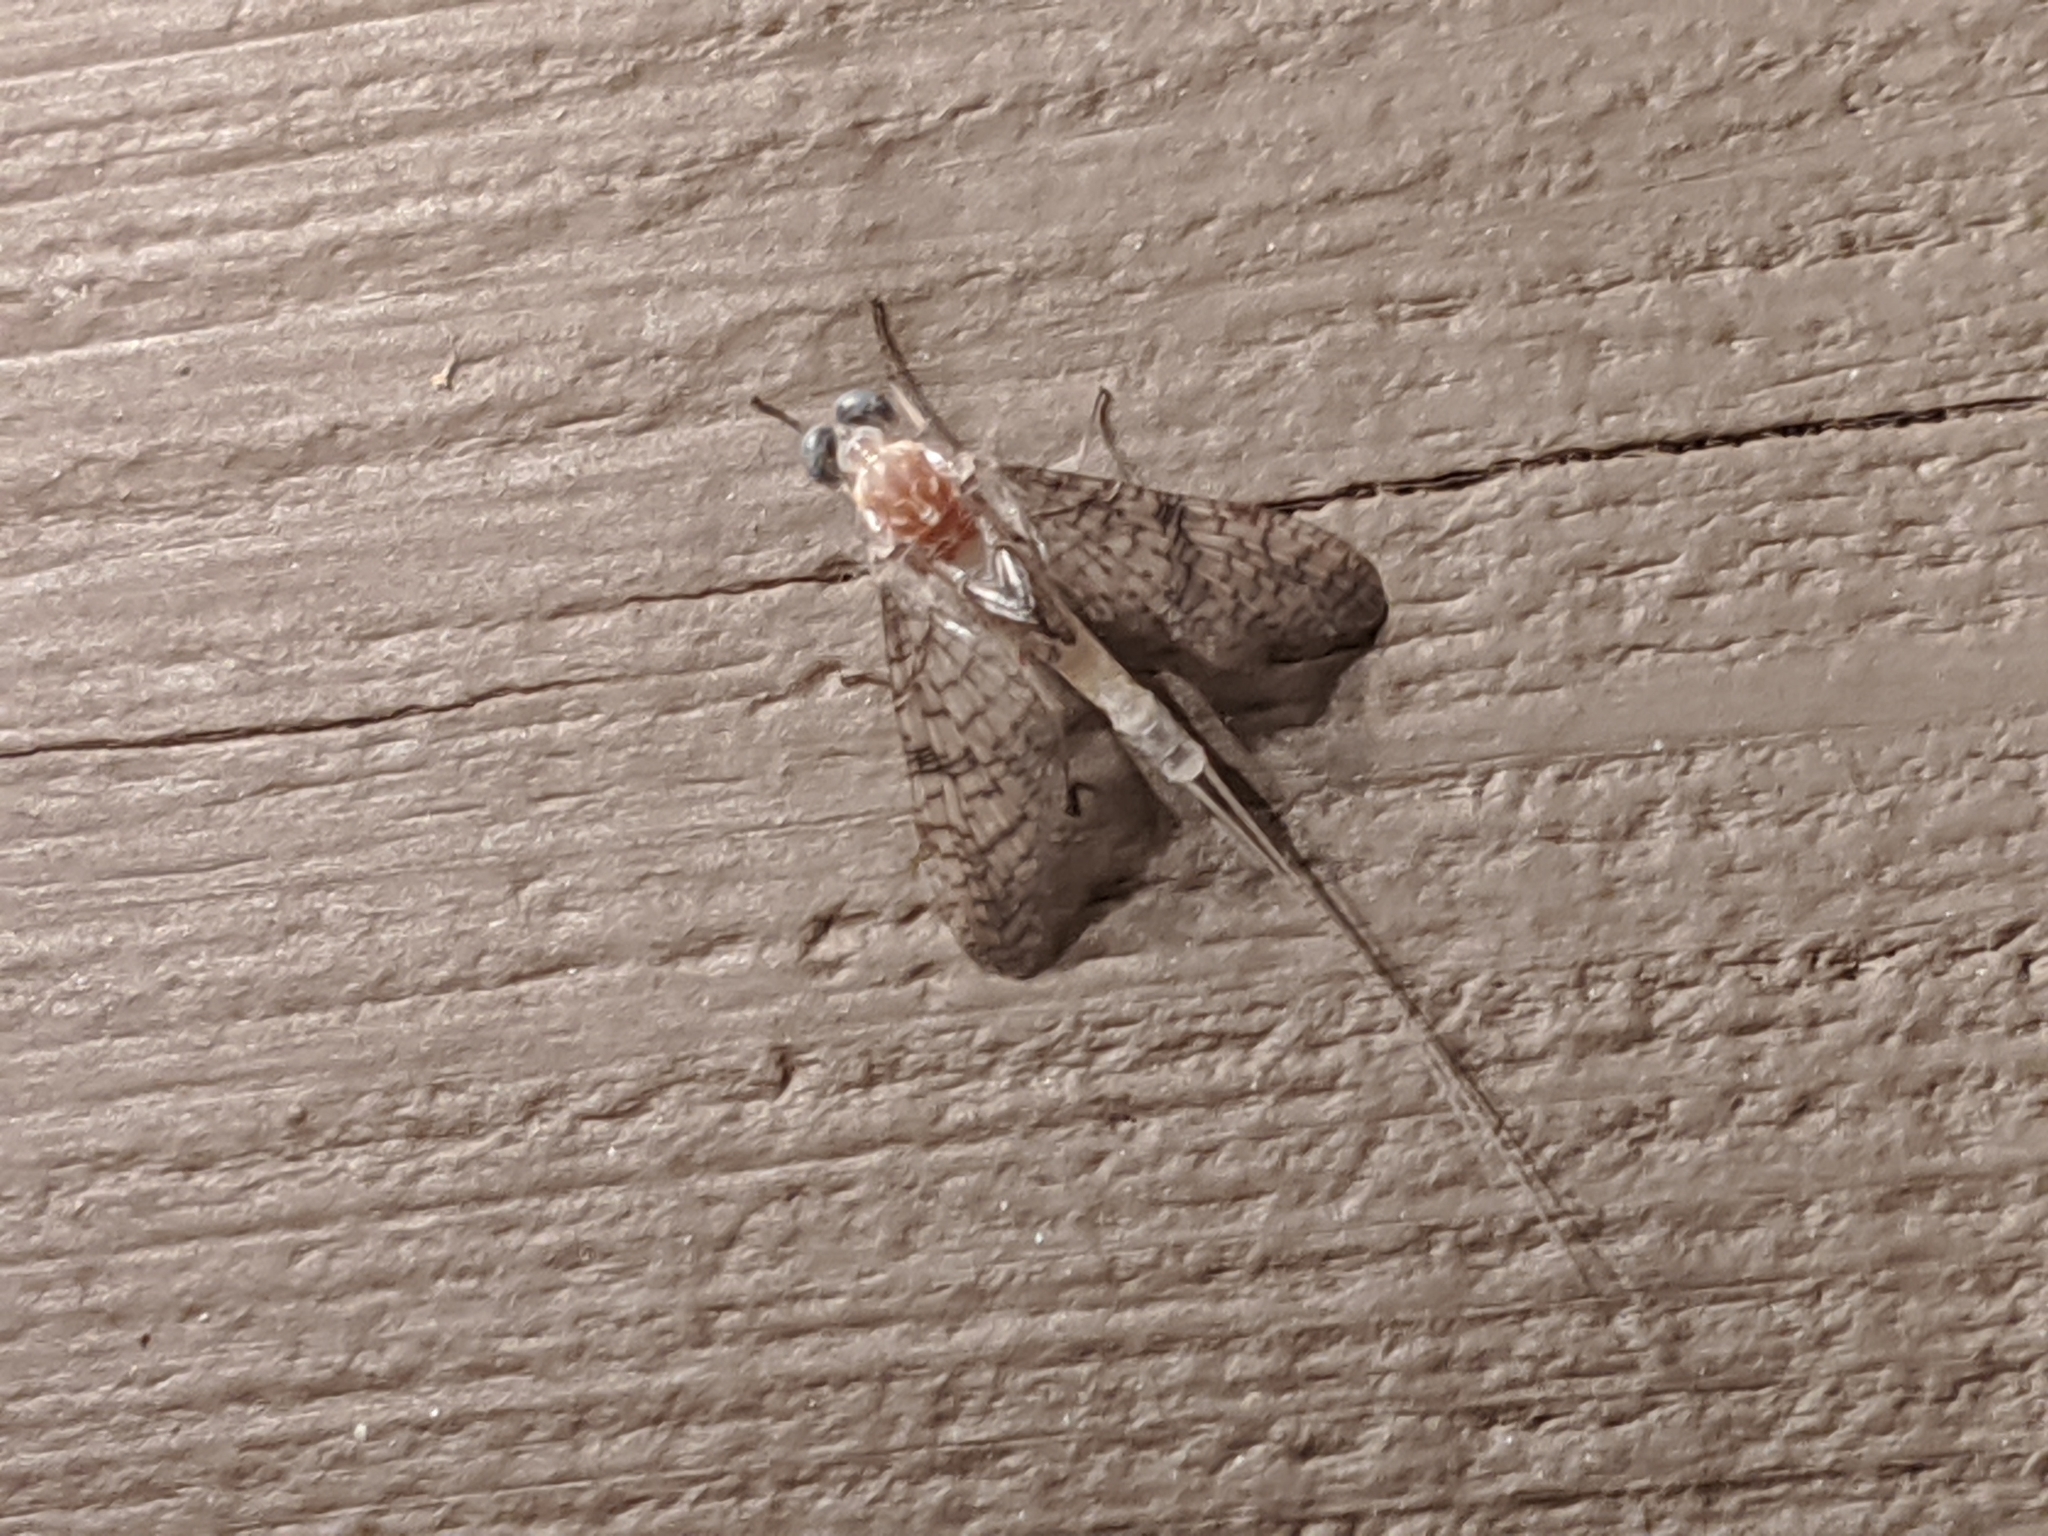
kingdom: Animalia
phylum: Arthropoda
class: Insecta
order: Ephemeroptera
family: Heptageniidae
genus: Stenonema
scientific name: Stenonema femoratum
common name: Dark cahill
